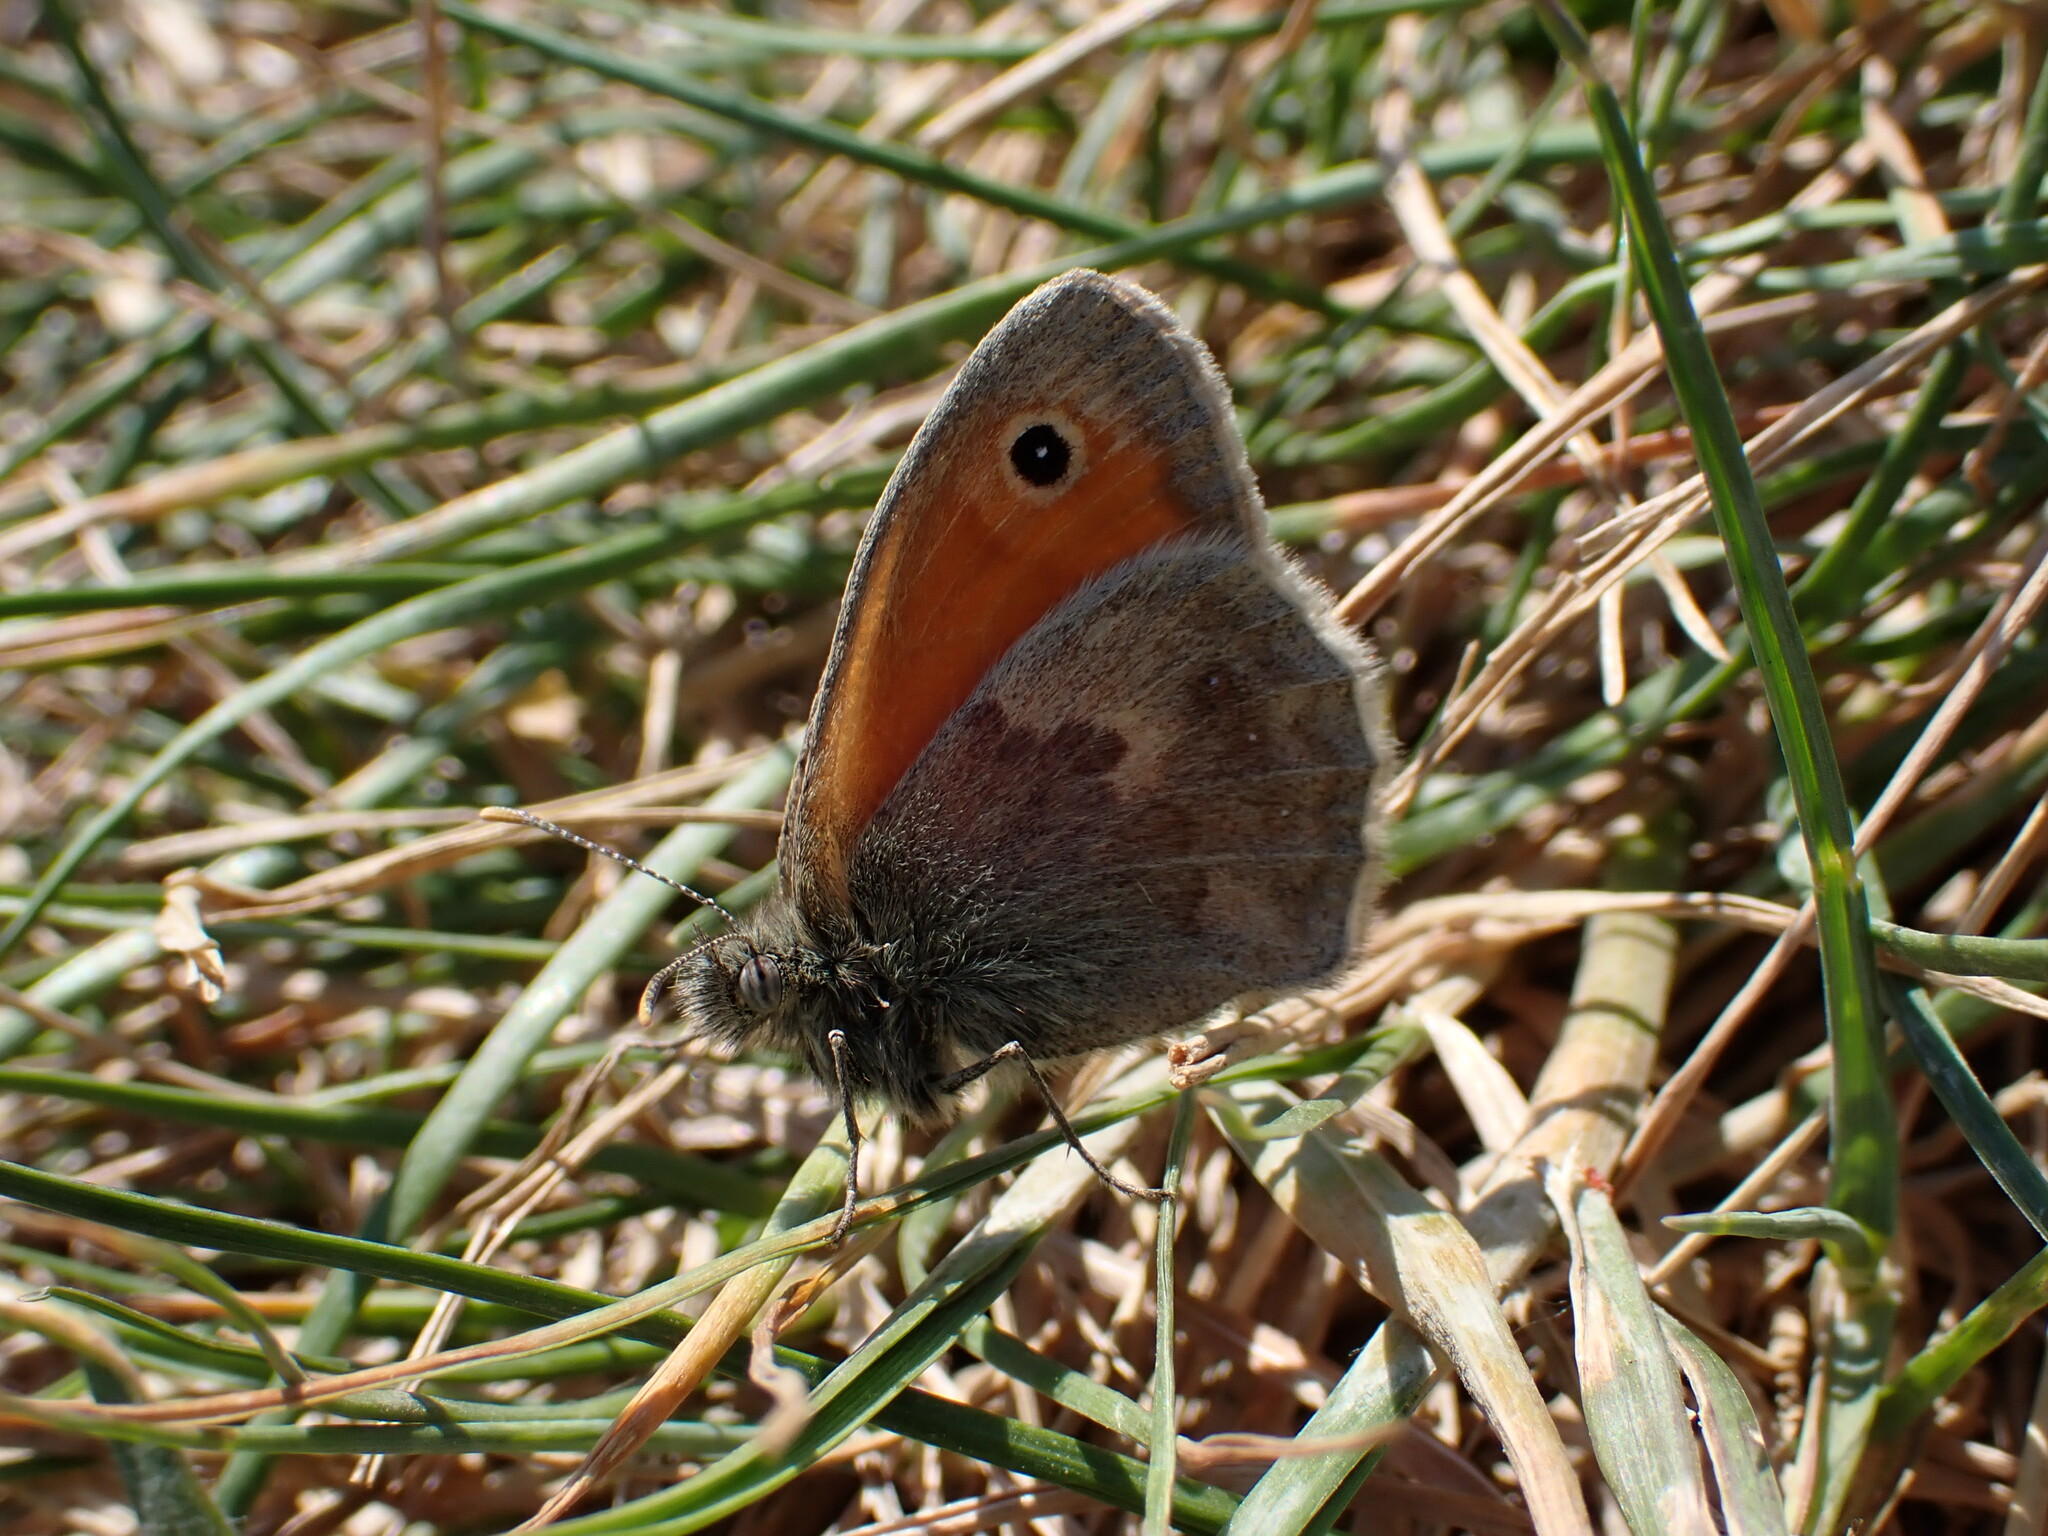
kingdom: Animalia
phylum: Arthropoda
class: Insecta
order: Lepidoptera
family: Nymphalidae
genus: Coenonympha
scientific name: Coenonympha pamphilus
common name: Small heath
